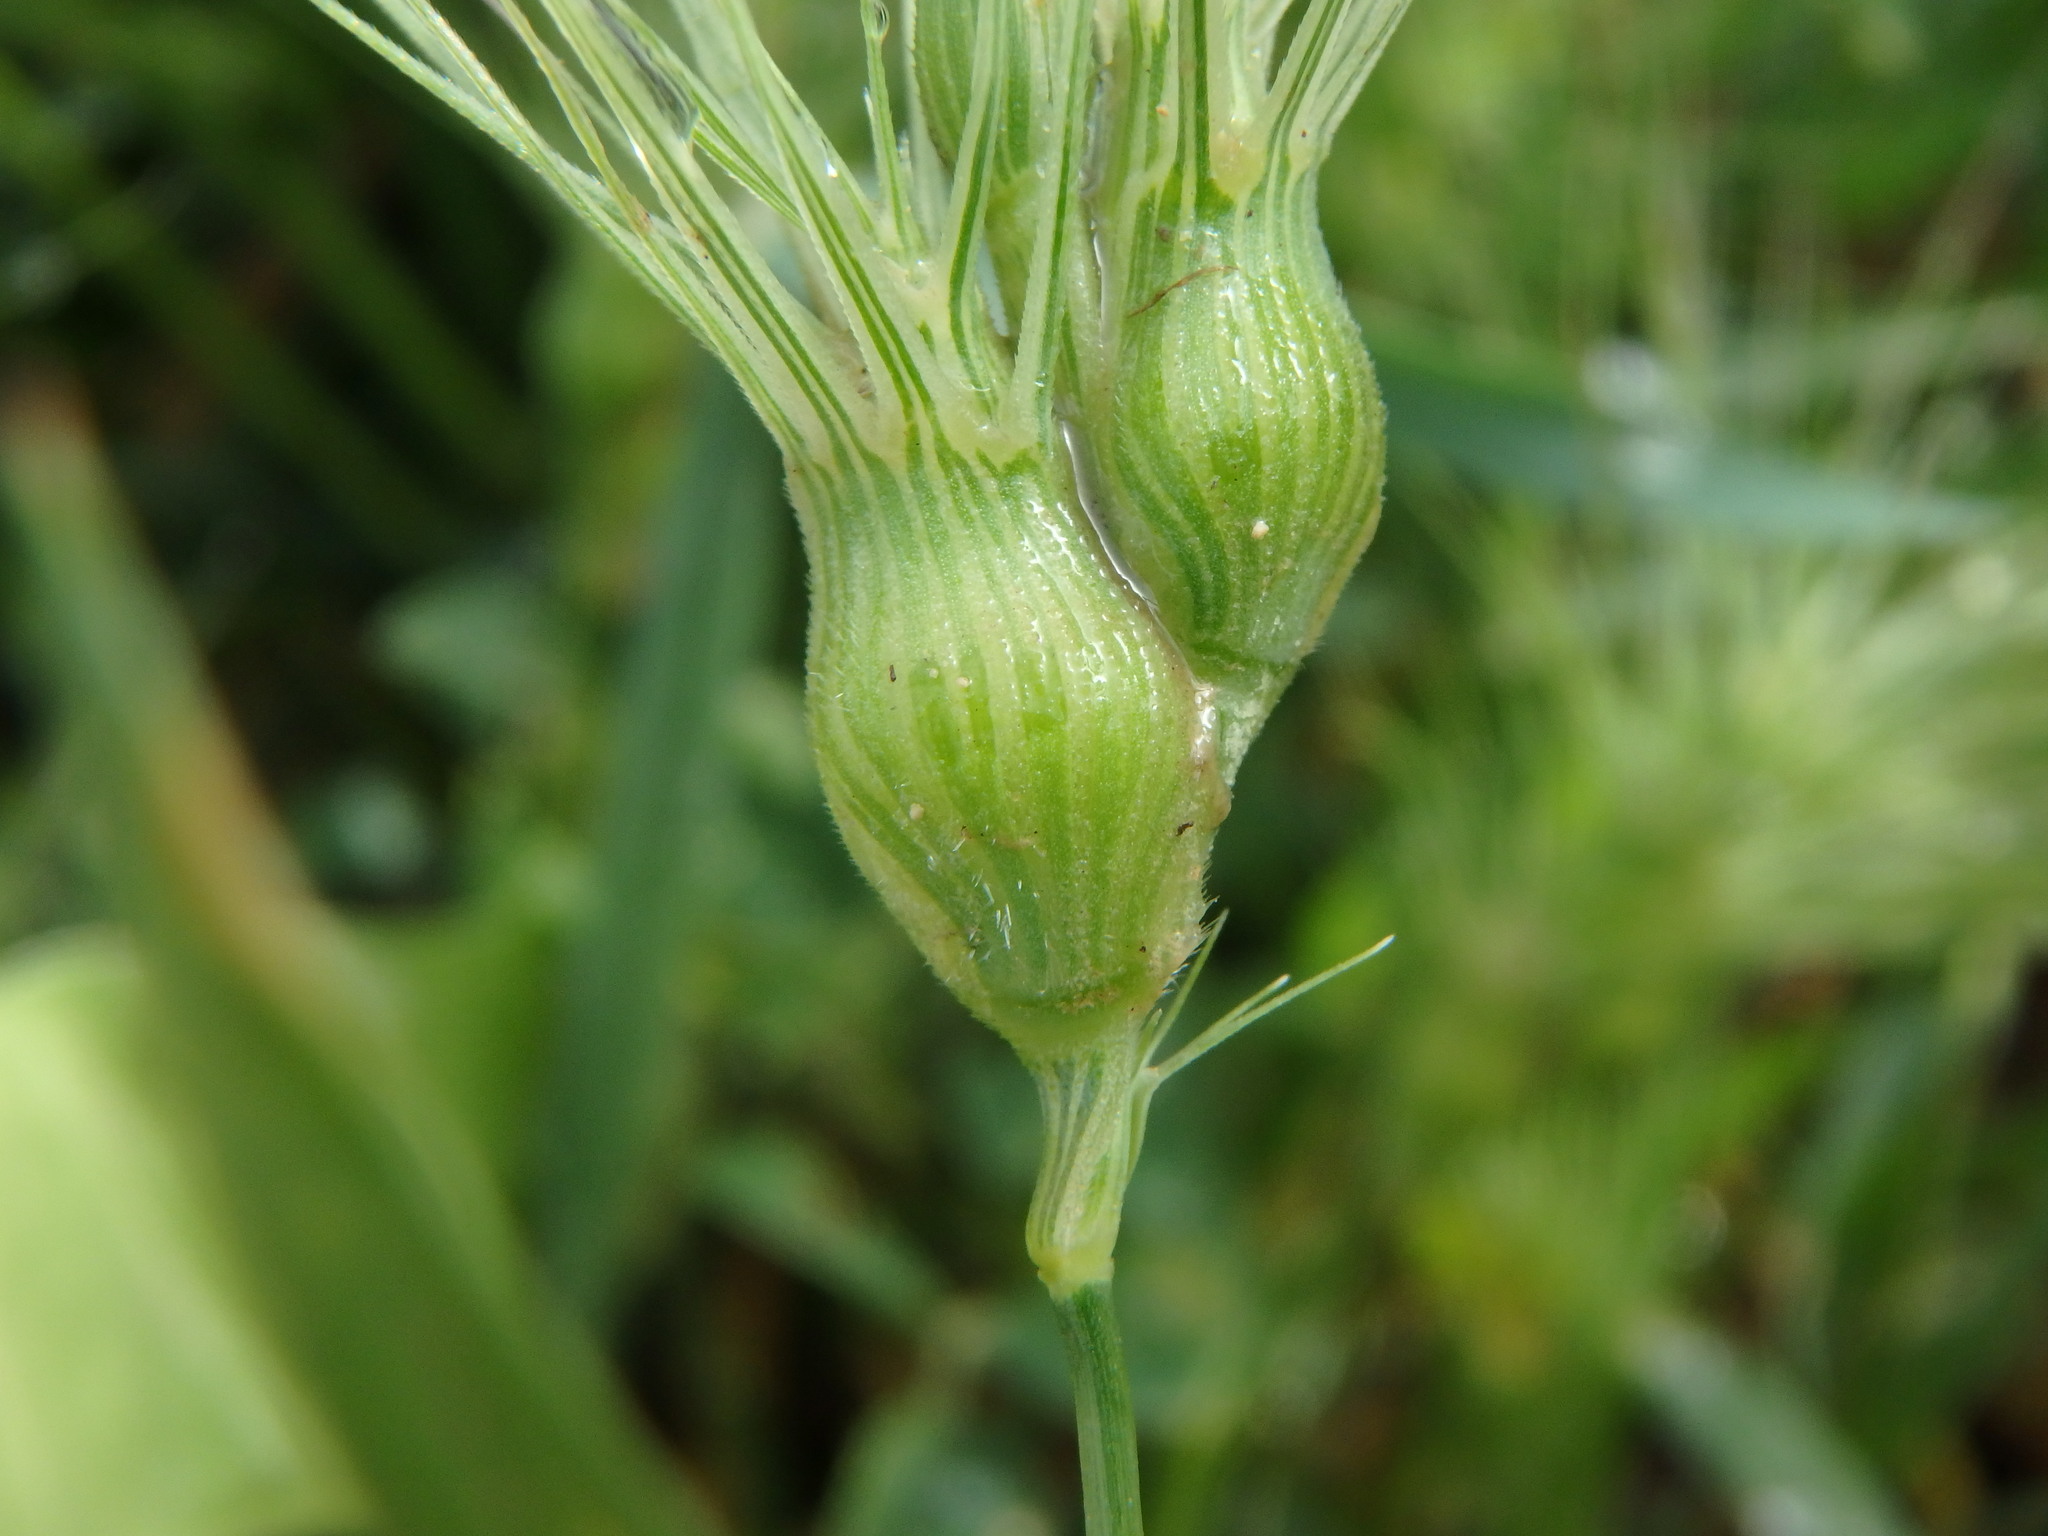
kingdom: Plantae
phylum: Tracheophyta
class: Liliopsida
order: Poales
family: Poaceae
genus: Aegilops
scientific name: Aegilops geniculata
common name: Ovate goat grass
